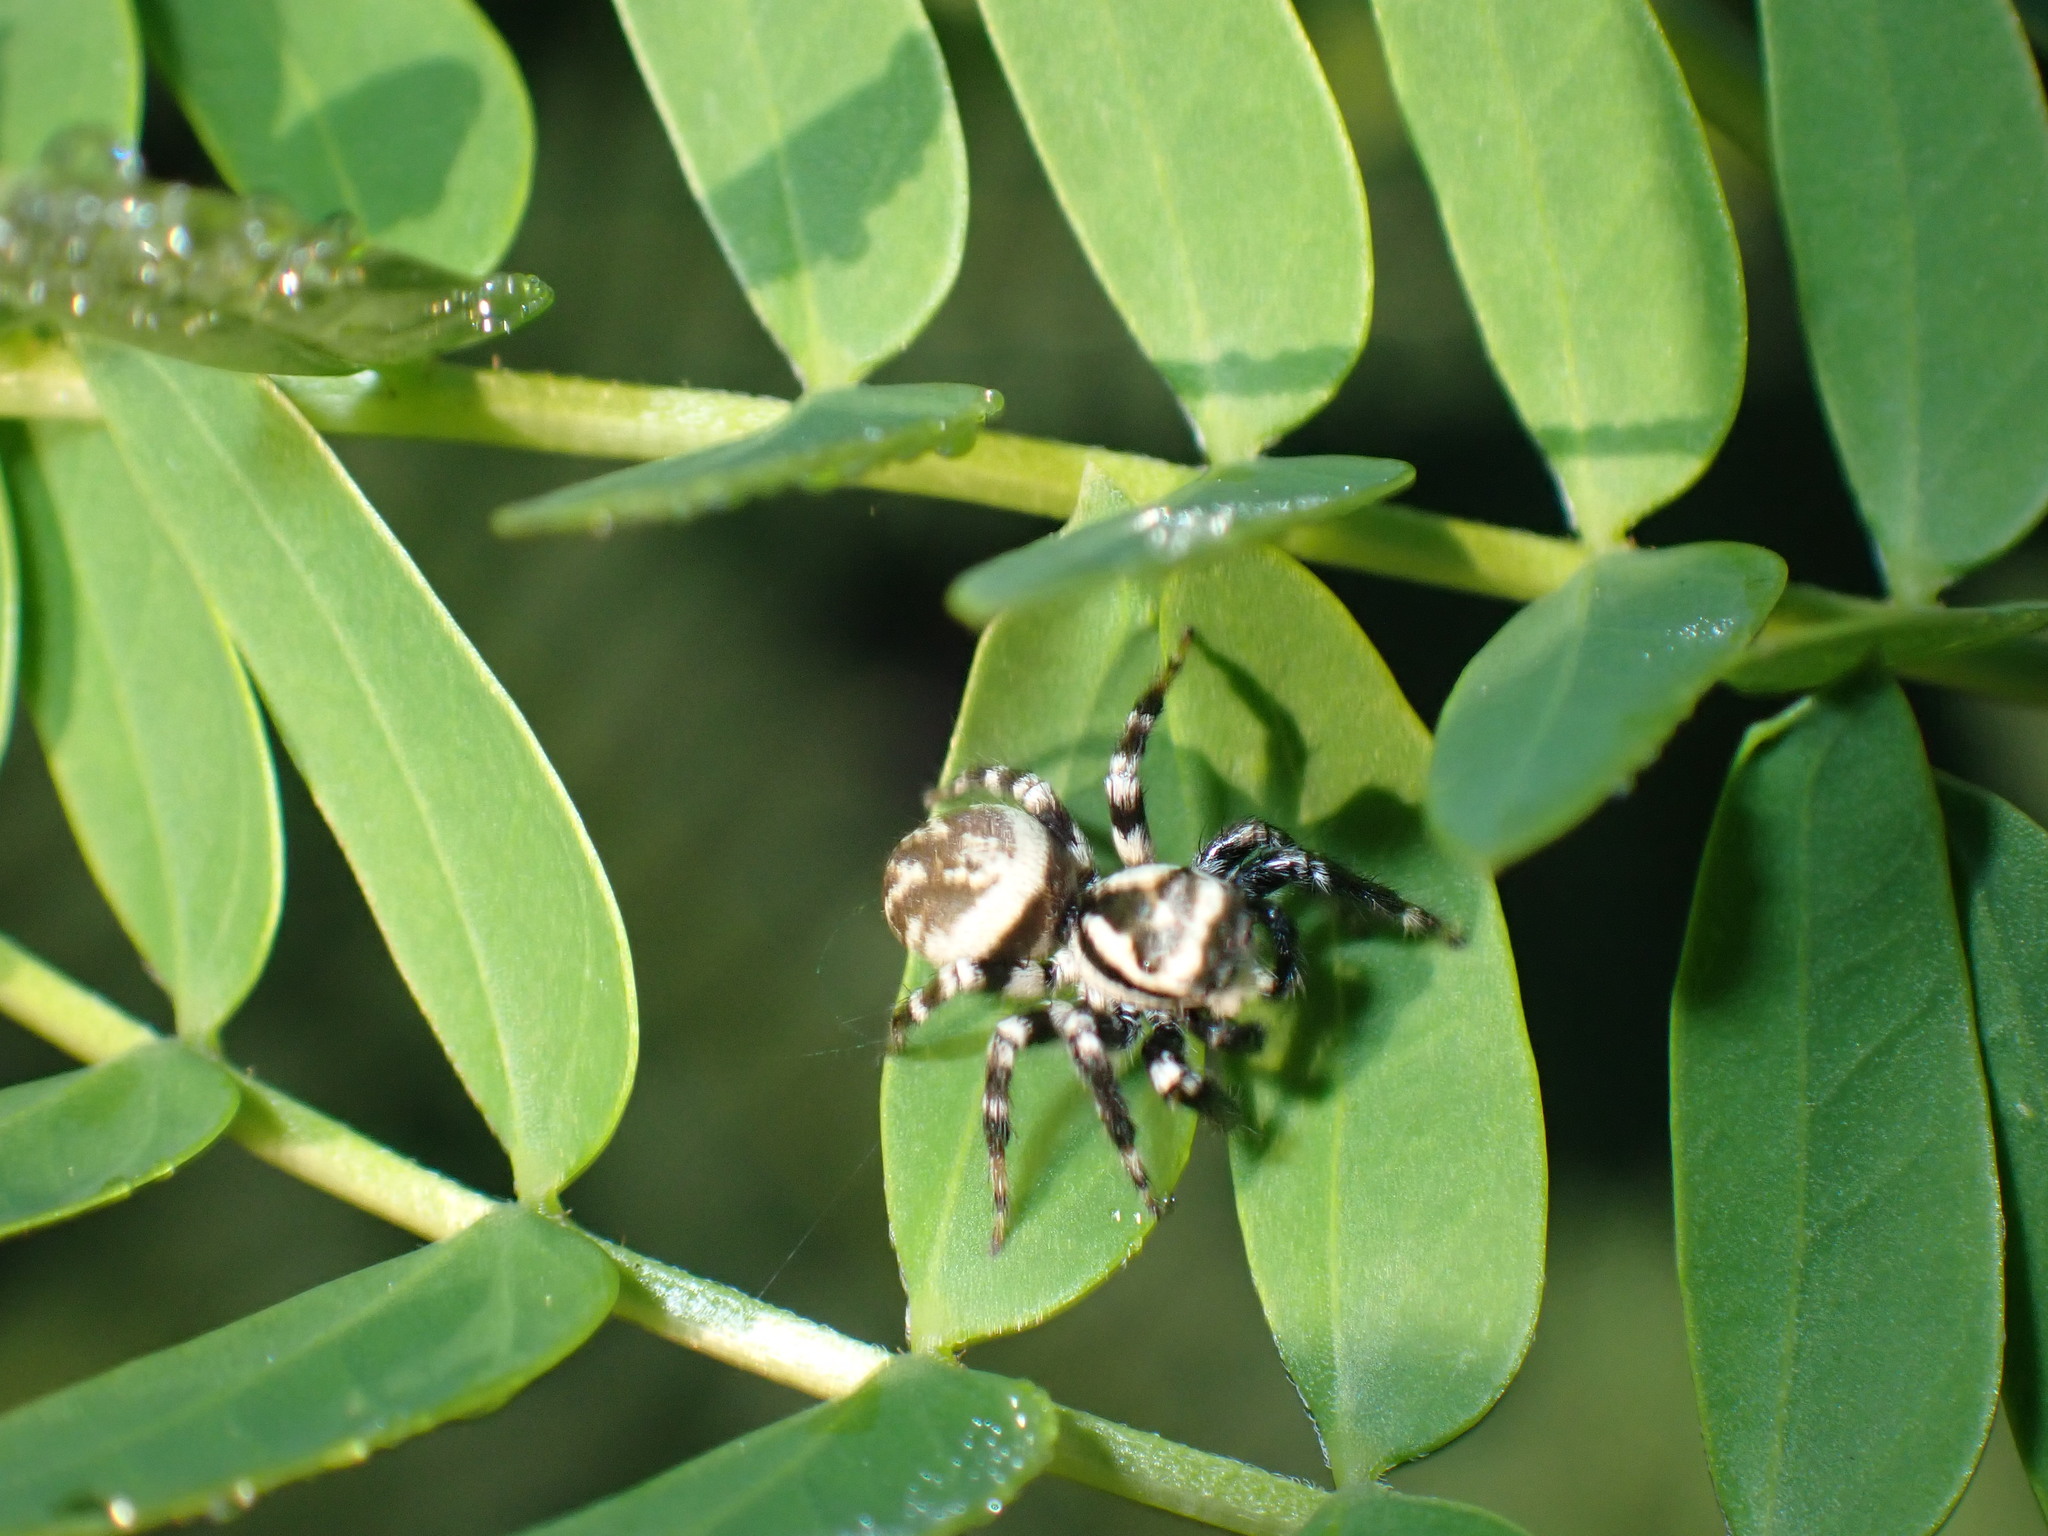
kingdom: Animalia
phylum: Arthropoda
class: Arachnida
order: Araneae
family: Salticidae
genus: Carrhotus
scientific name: Carrhotus sannio
